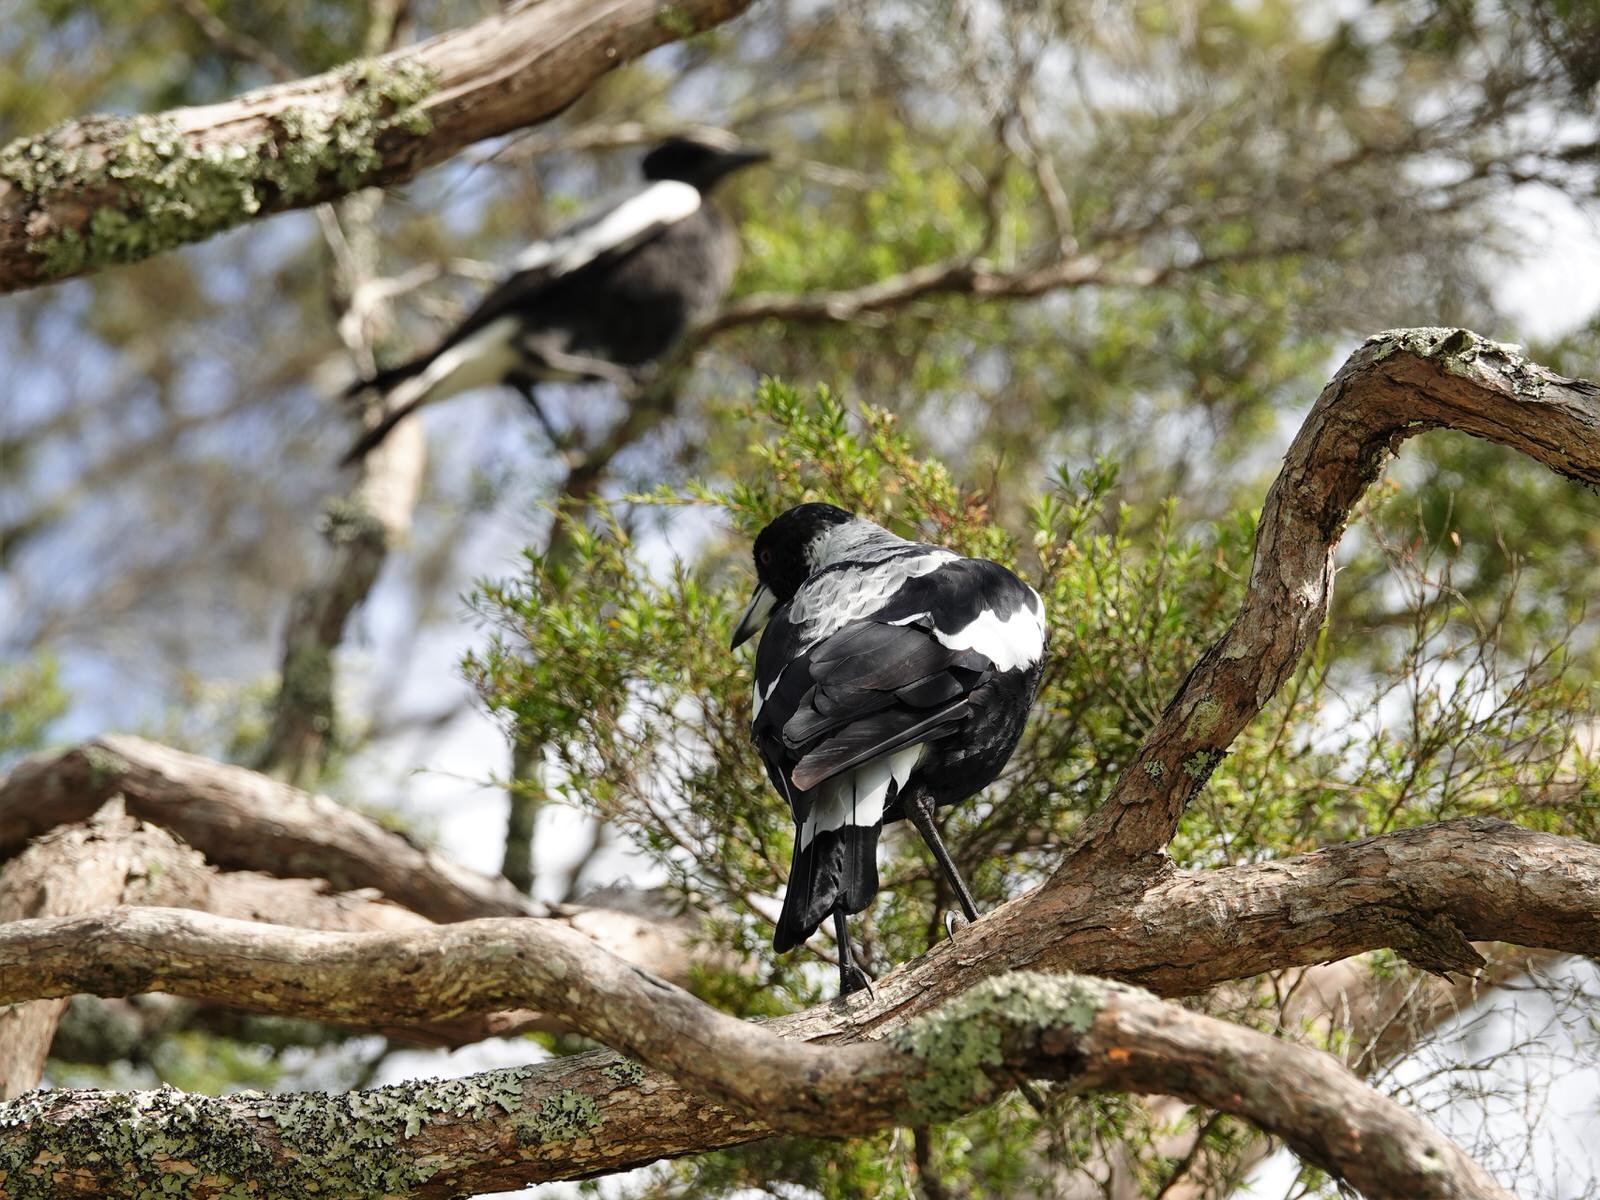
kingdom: Animalia
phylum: Chordata
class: Aves
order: Passeriformes
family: Cracticidae
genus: Gymnorhina
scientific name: Gymnorhina tibicen
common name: Australian magpie
